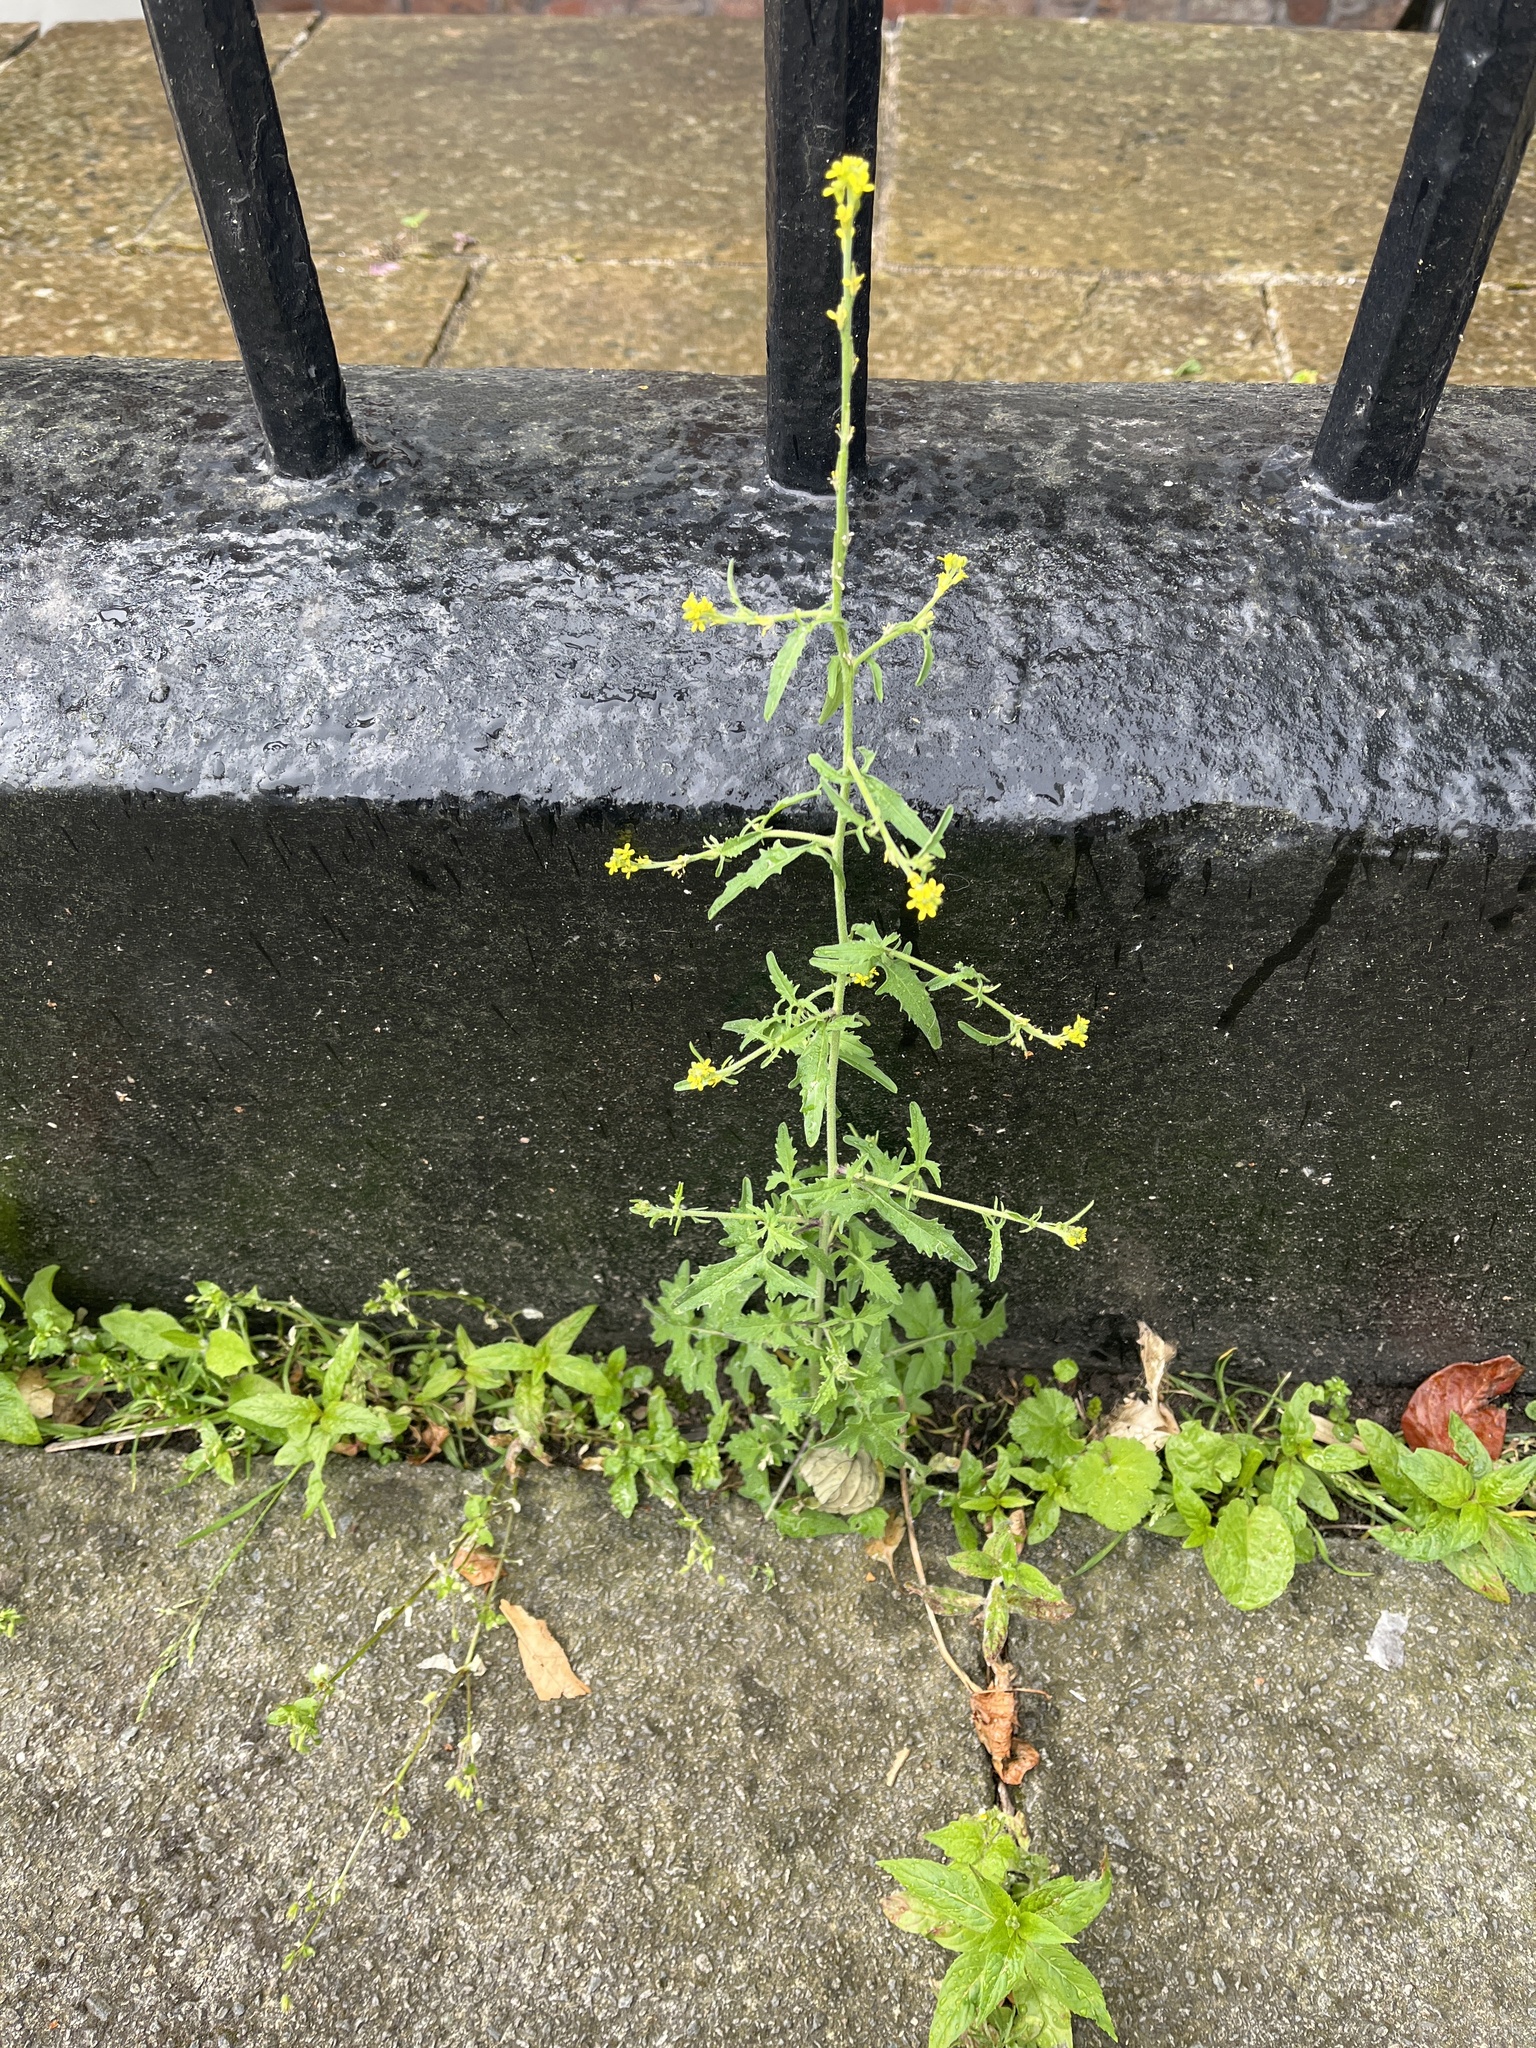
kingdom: Plantae
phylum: Tracheophyta
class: Magnoliopsida
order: Brassicales
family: Brassicaceae
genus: Sisymbrium
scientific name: Sisymbrium officinale
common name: Hedge mustard
